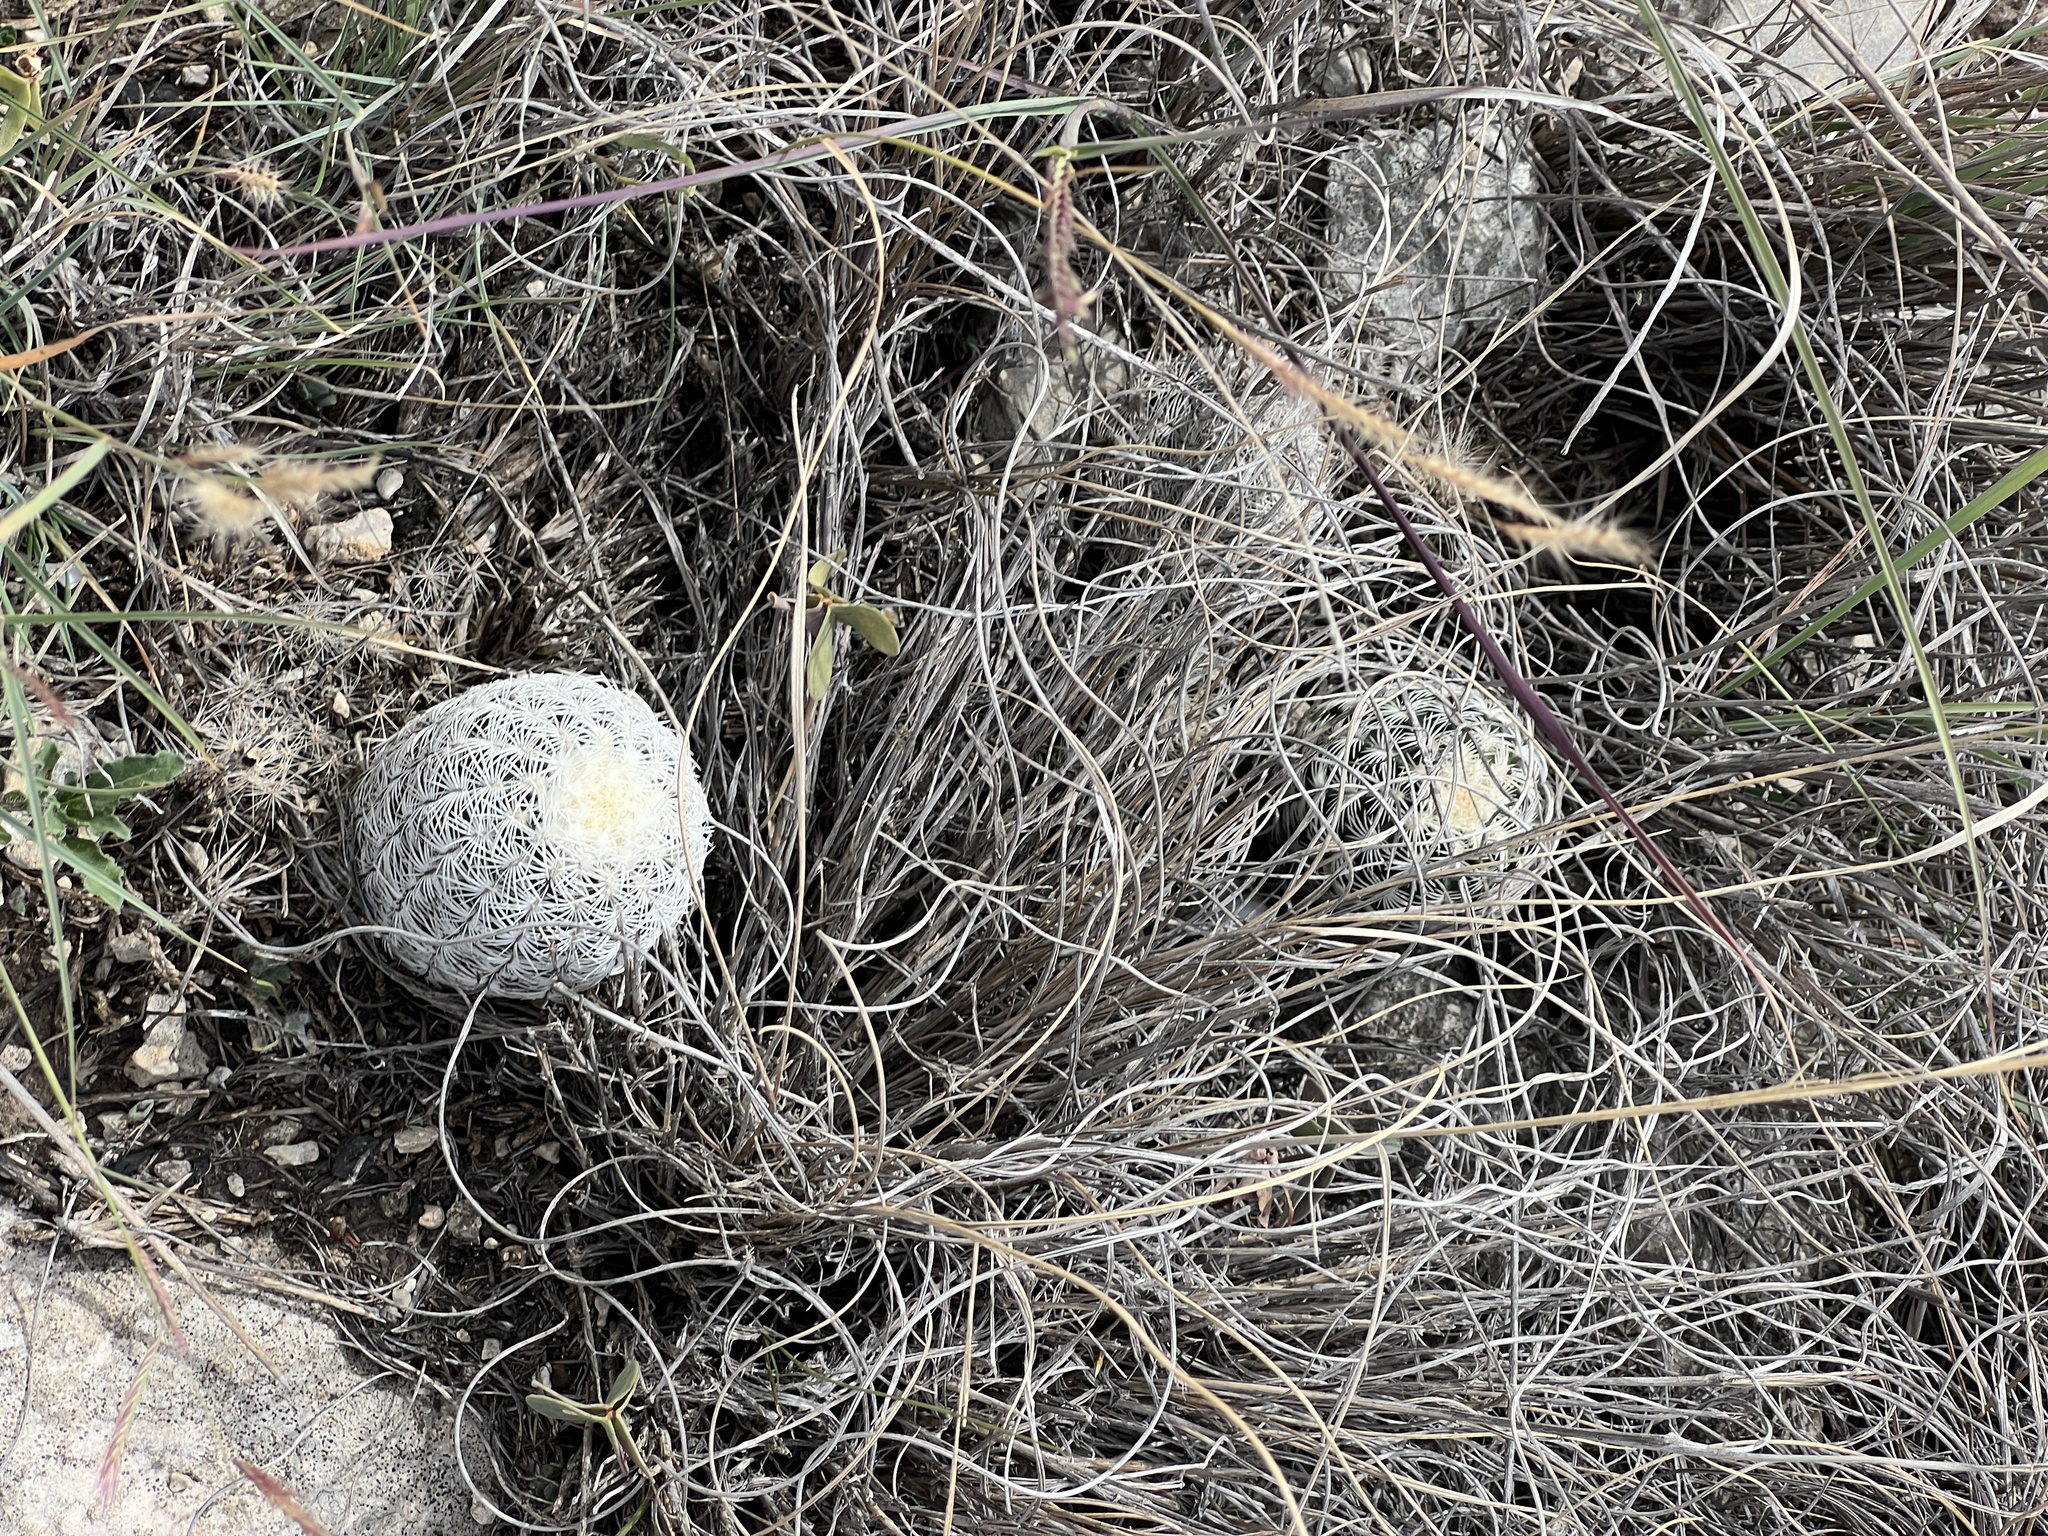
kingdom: Plantae
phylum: Tracheophyta
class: Magnoliopsida
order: Caryophyllales
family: Cactaceae
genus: Echinocereus
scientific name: Echinocereus reichenbachii
